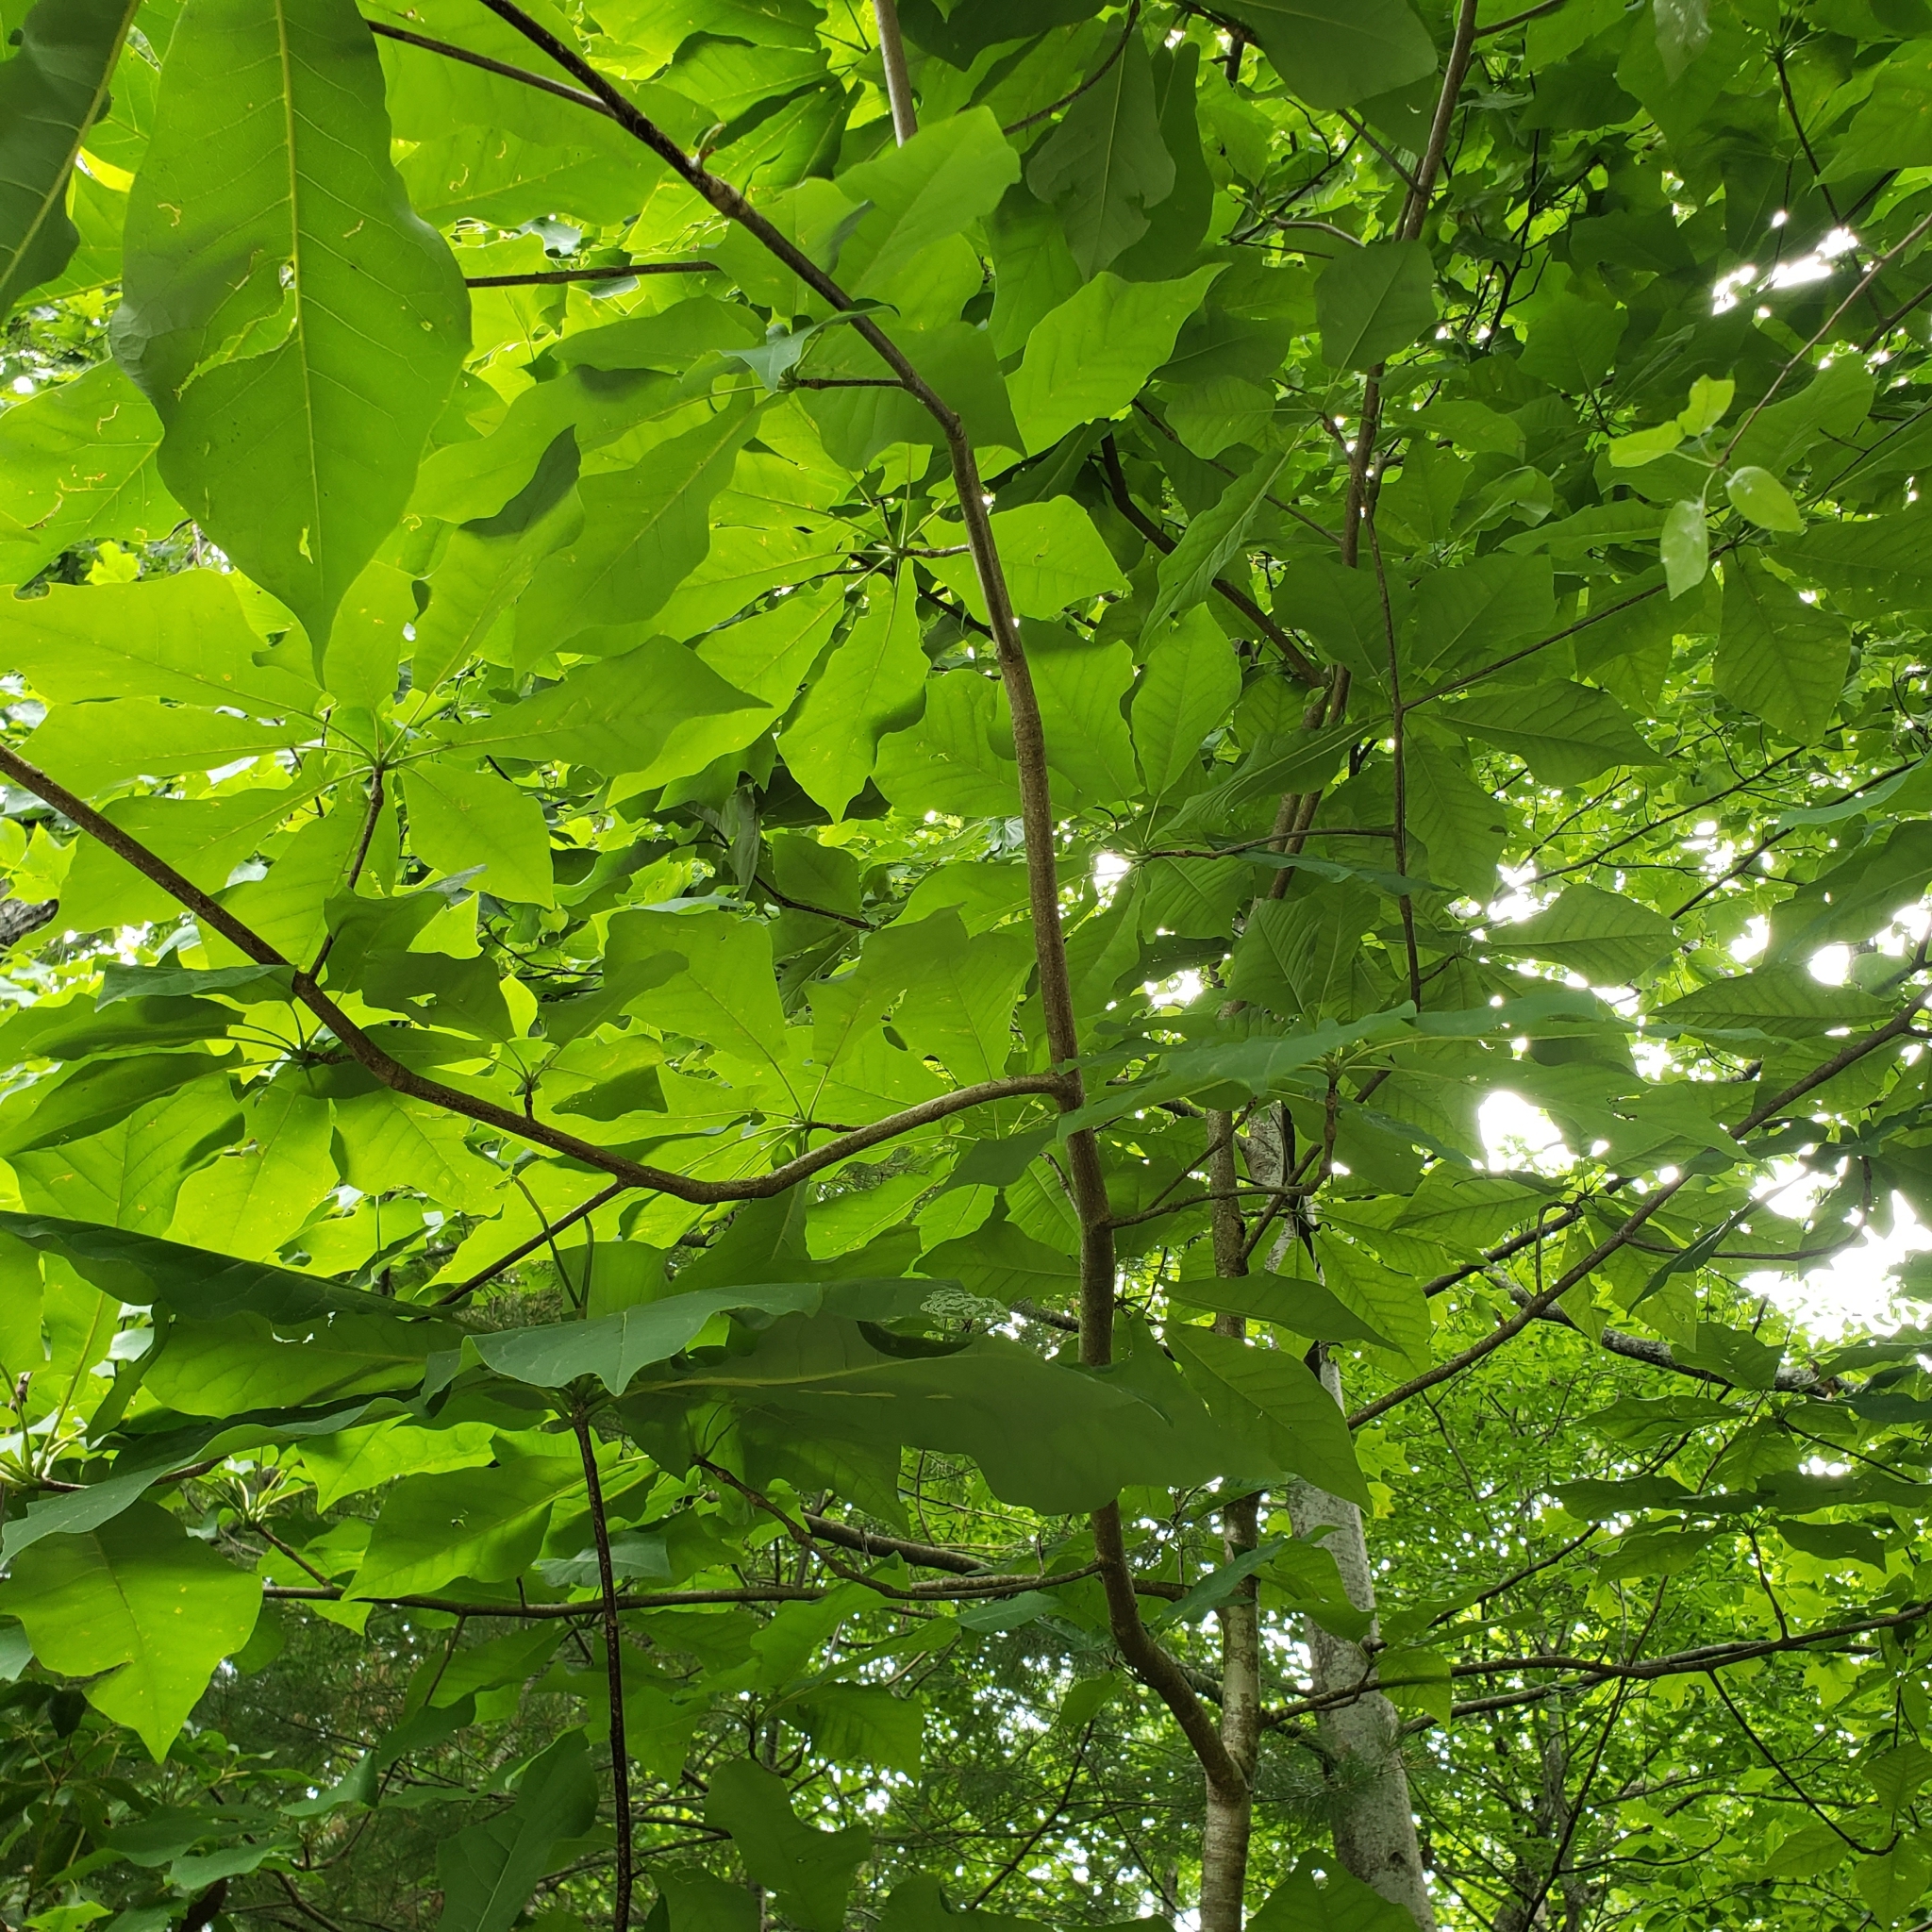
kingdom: Plantae
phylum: Tracheophyta
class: Magnoliopsida
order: Magnoliales
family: Magnoliaceae
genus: Magnolia
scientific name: Magnolia fraseri
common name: Fraser's magnolia
